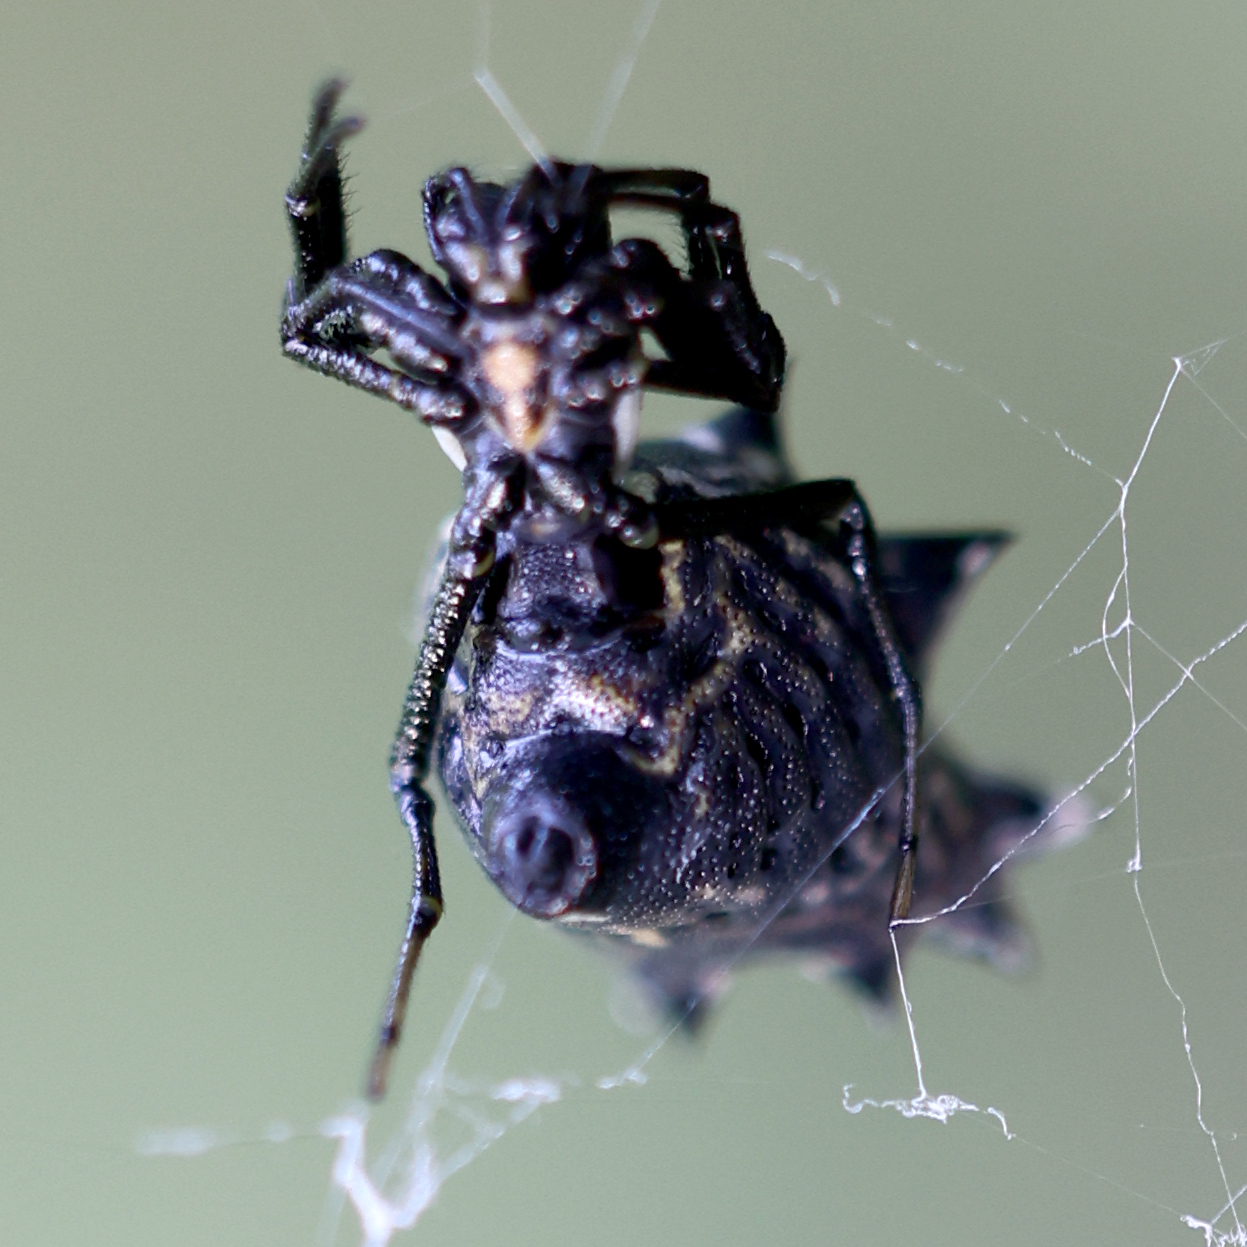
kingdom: Animalia
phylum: Arthropoda
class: Arachnida
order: Araneae
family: Araneidae
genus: Micrathena
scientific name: Micrathena gracilis
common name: Orb weavers
